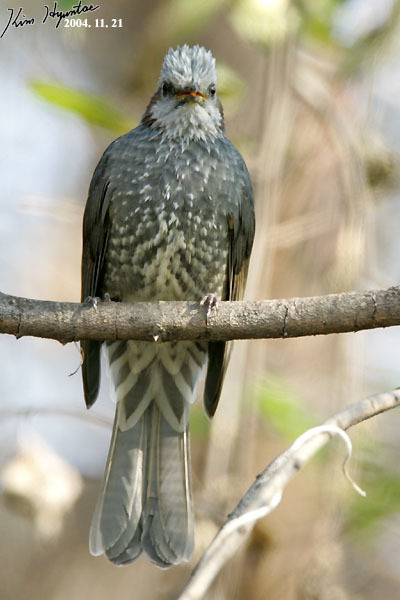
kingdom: Animalia
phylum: Chordata
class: Aves
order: Passeriformes
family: Pycnonotidae
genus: Hypsipetes
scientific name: Hypsipetes amaurotis
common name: Brown-eared bulbul
